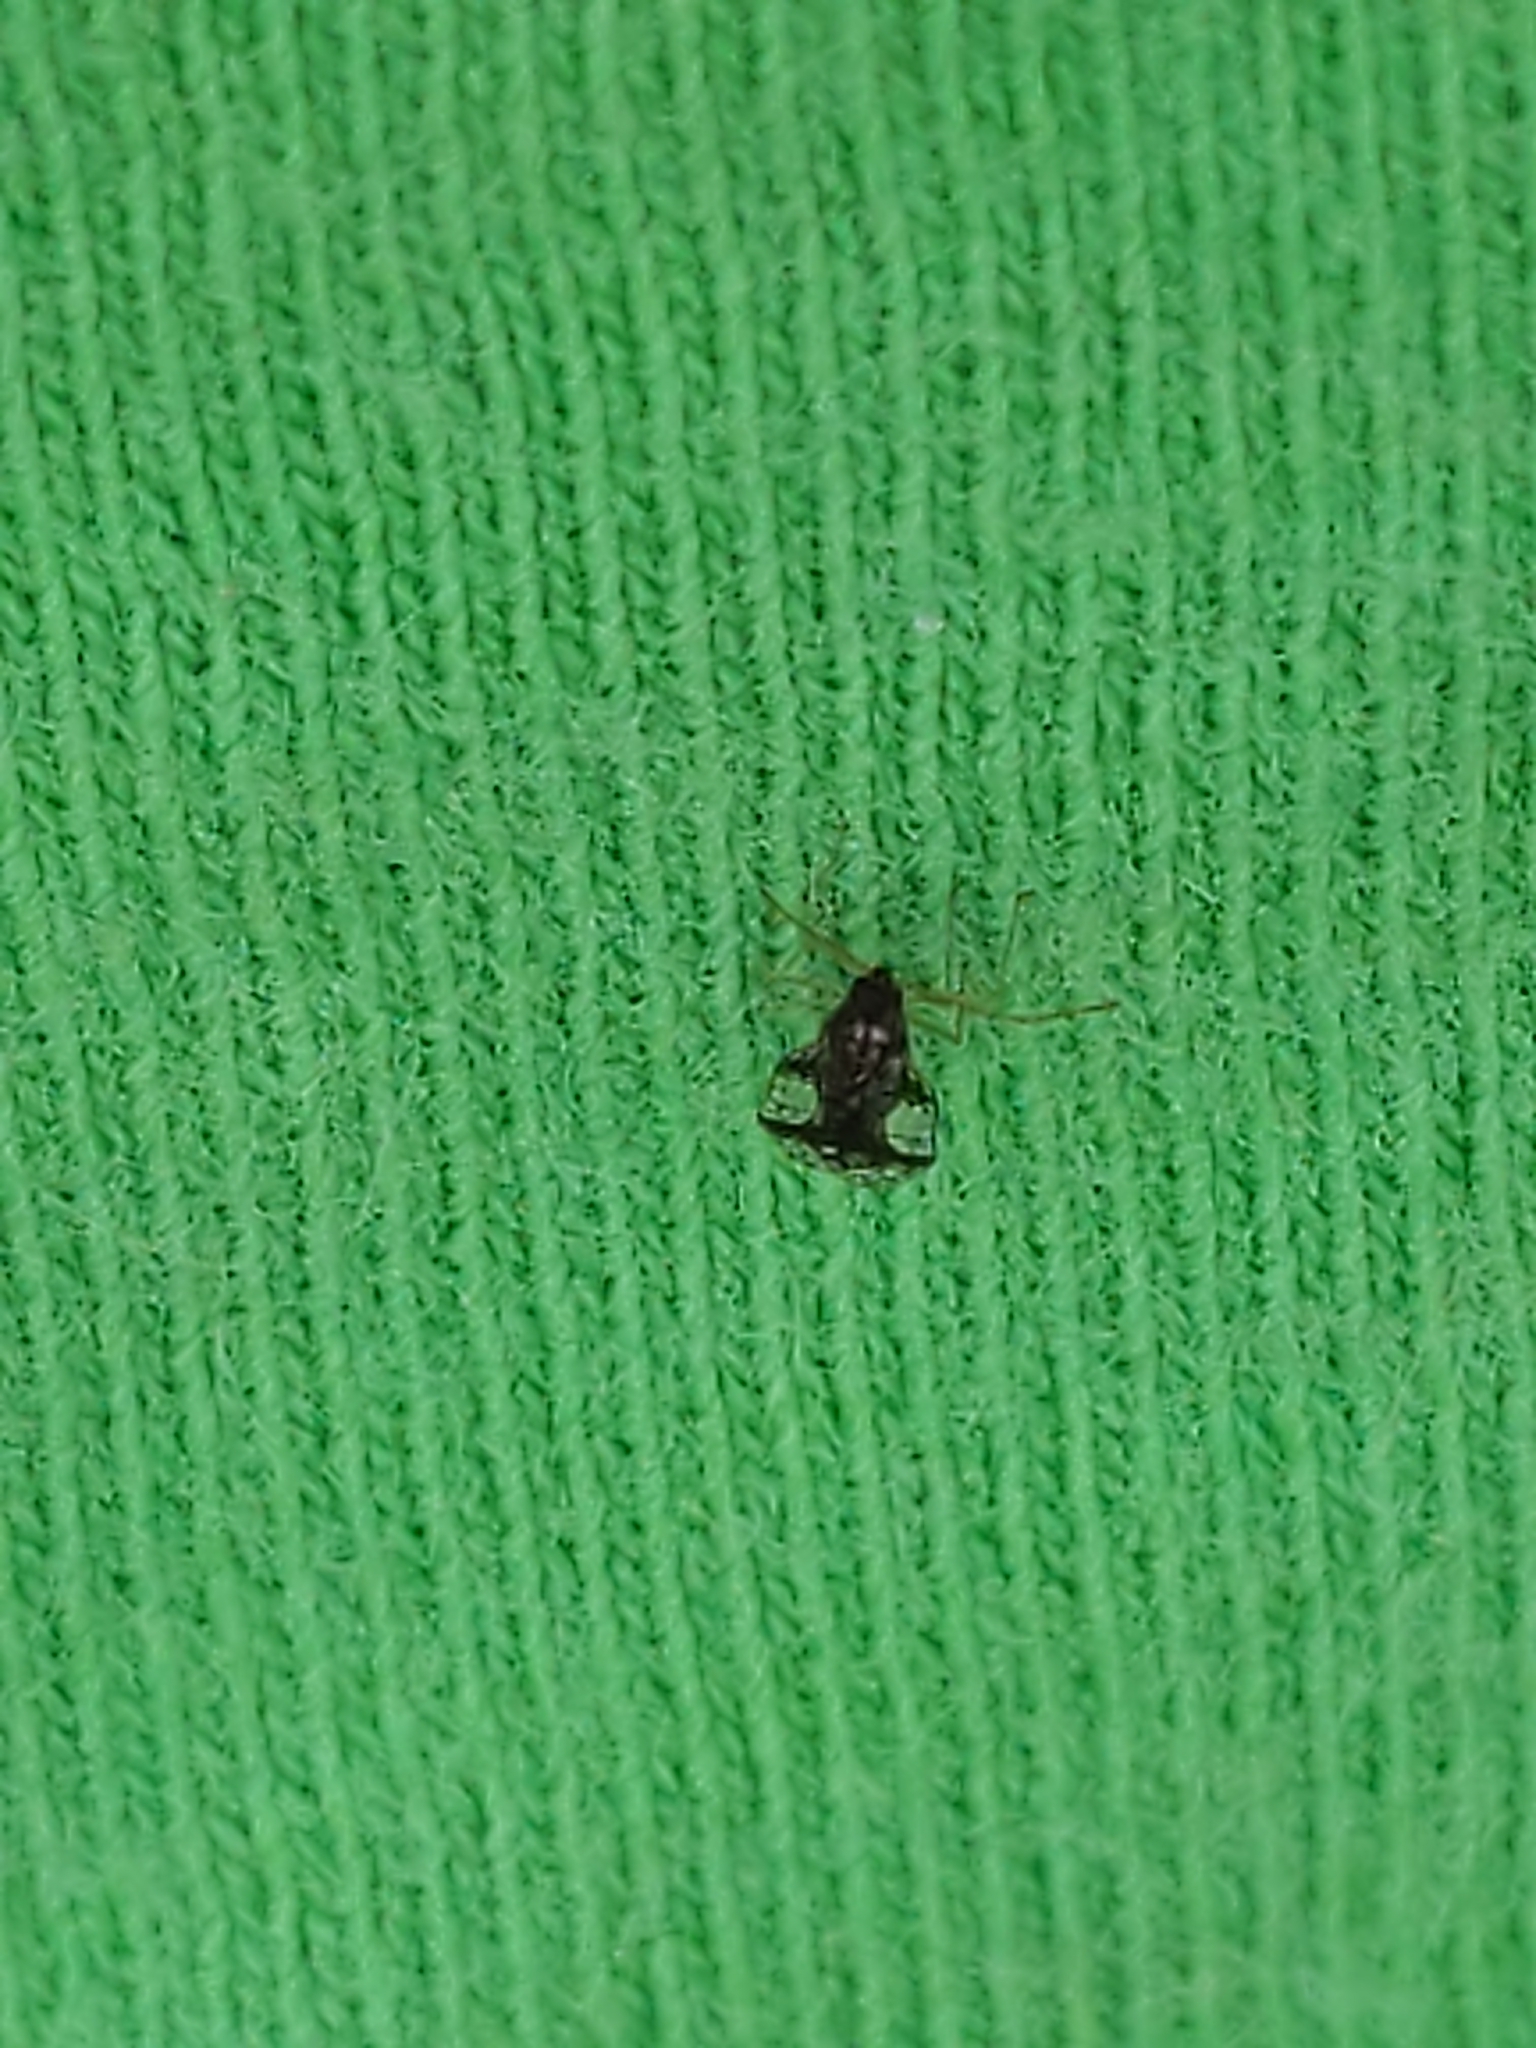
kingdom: Animalia
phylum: Arthropoda
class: Insecta
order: Hemiptera
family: Tingidae
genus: Stephanitis
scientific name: Stephanitis takeyai
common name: Andromeda lacebug
